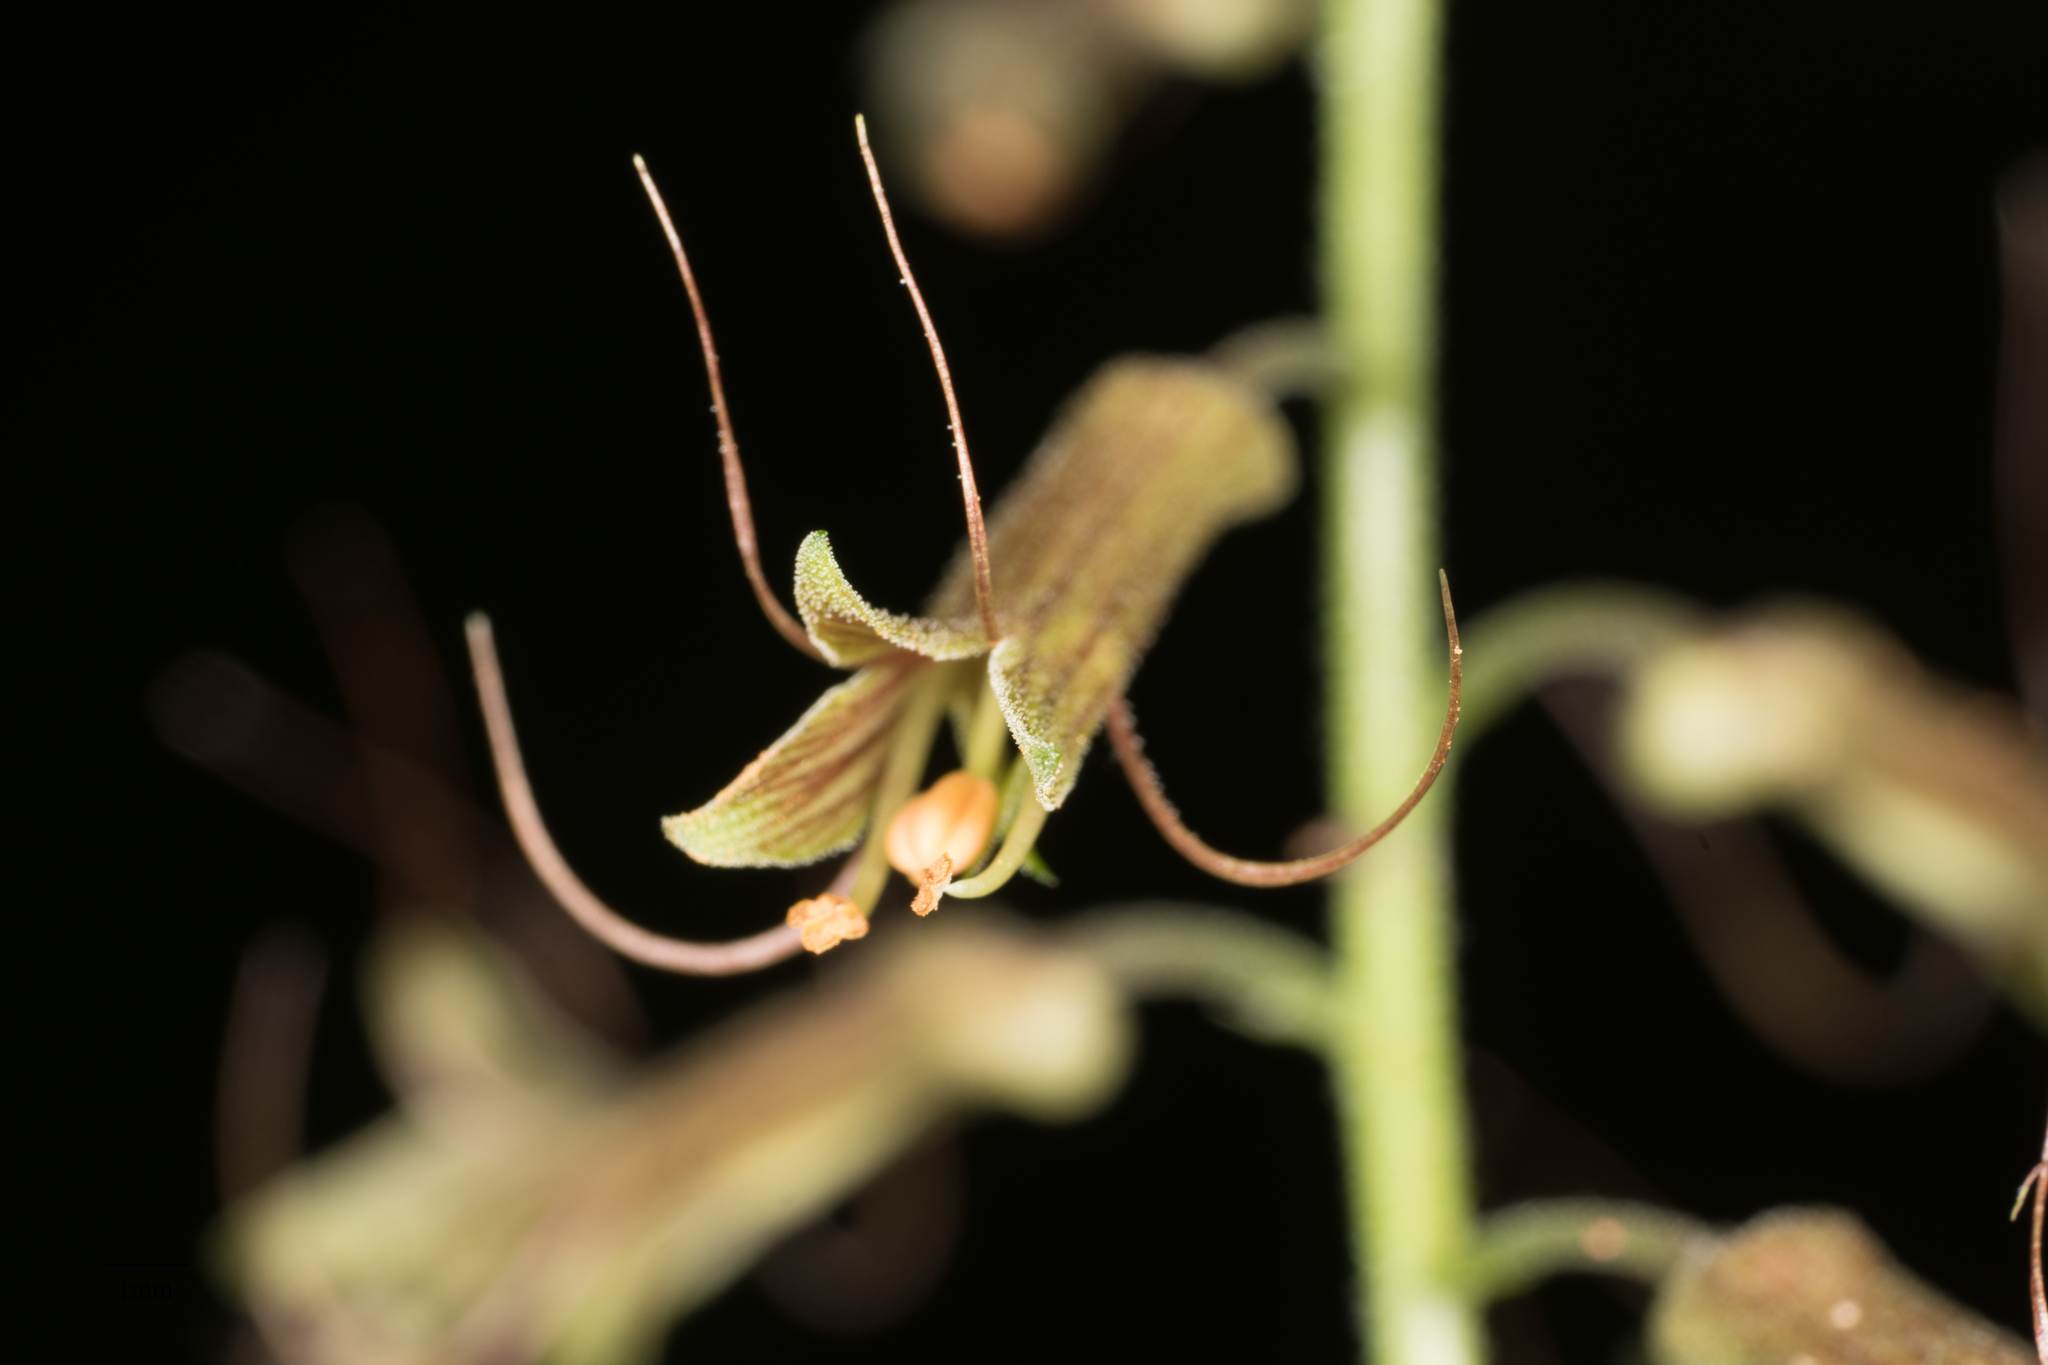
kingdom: Plantae
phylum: Tracheophyta
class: Magnoliopsida
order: Saxifragales
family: Saxifragaceae
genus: Tolmiea
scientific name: Tolmiea menziesii
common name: Pick-a-back-plant
